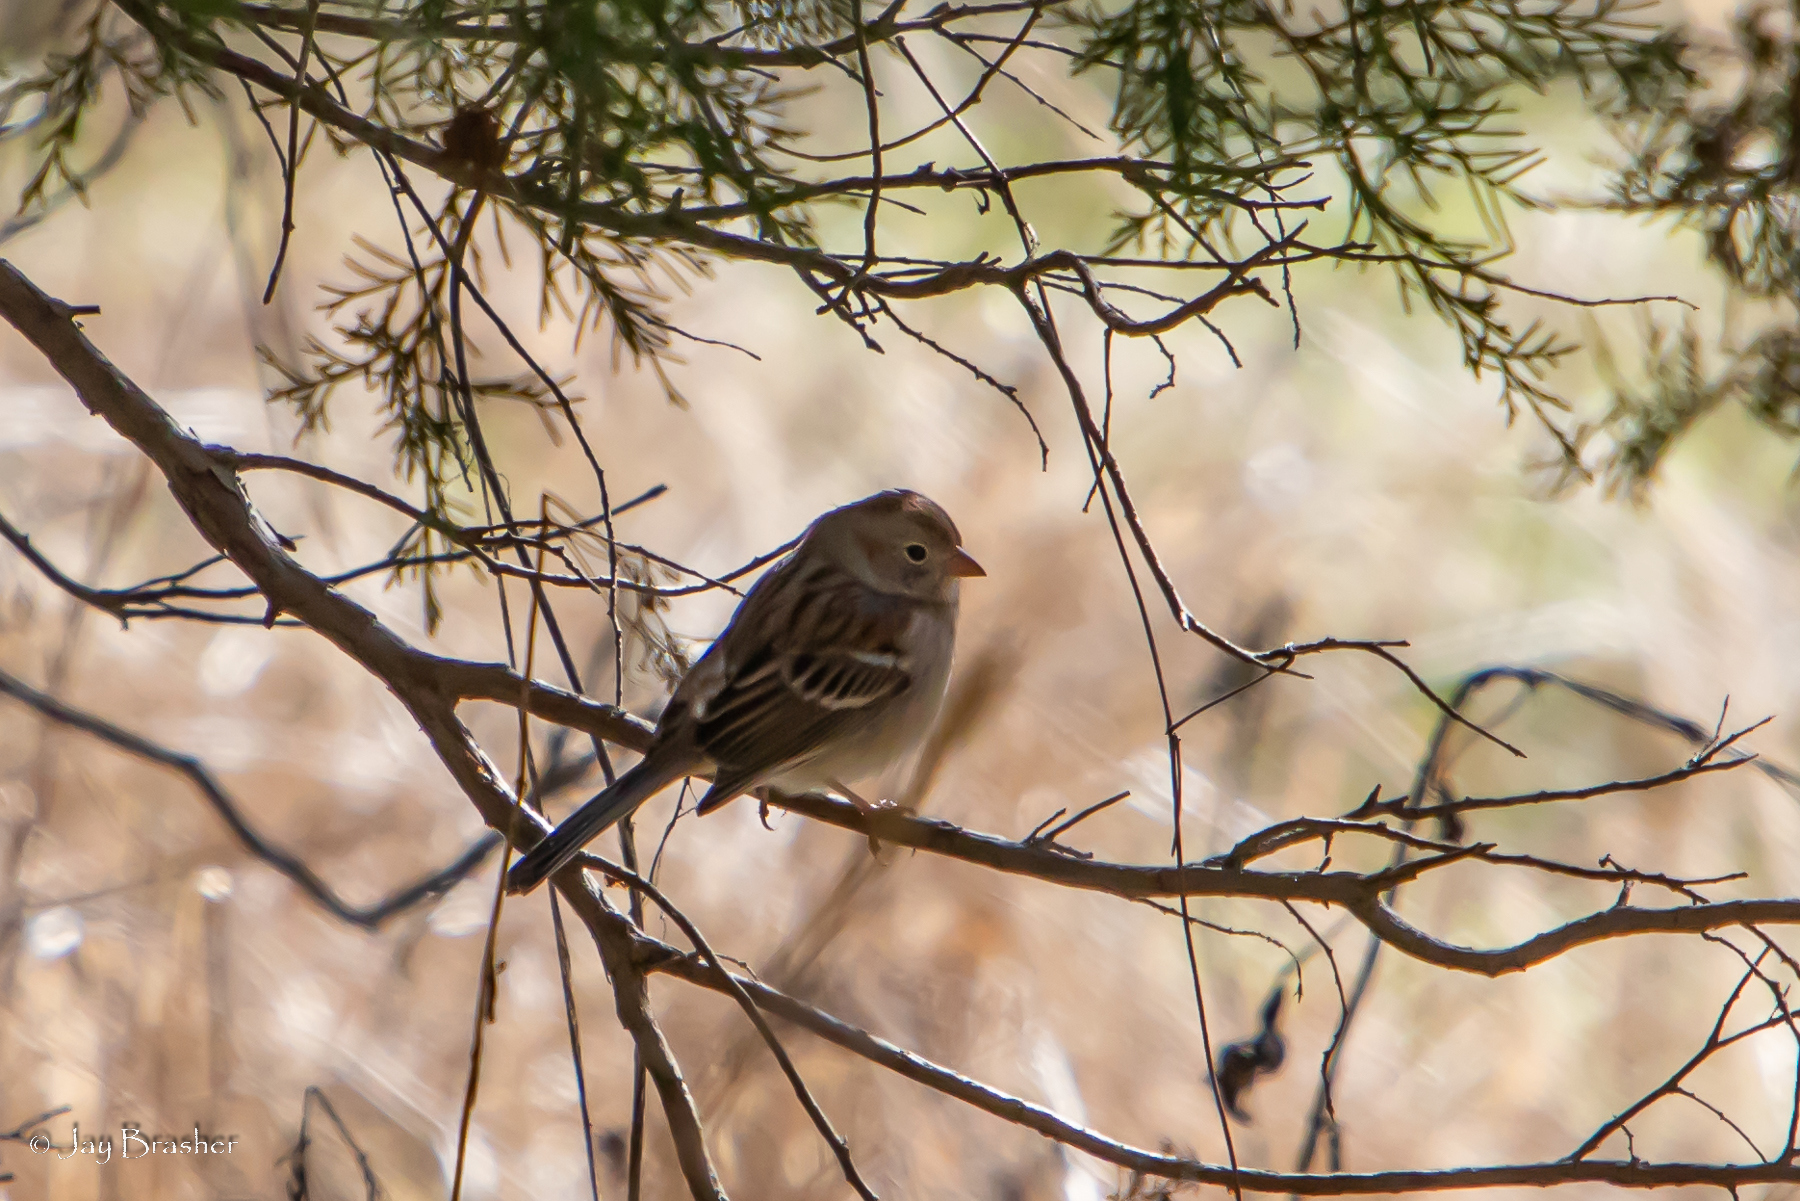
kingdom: Animalia
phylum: Chordata
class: Aves
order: Passeriformes
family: Passerellidae
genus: Spizella
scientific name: Spizella pusilla
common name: Field sparrow
